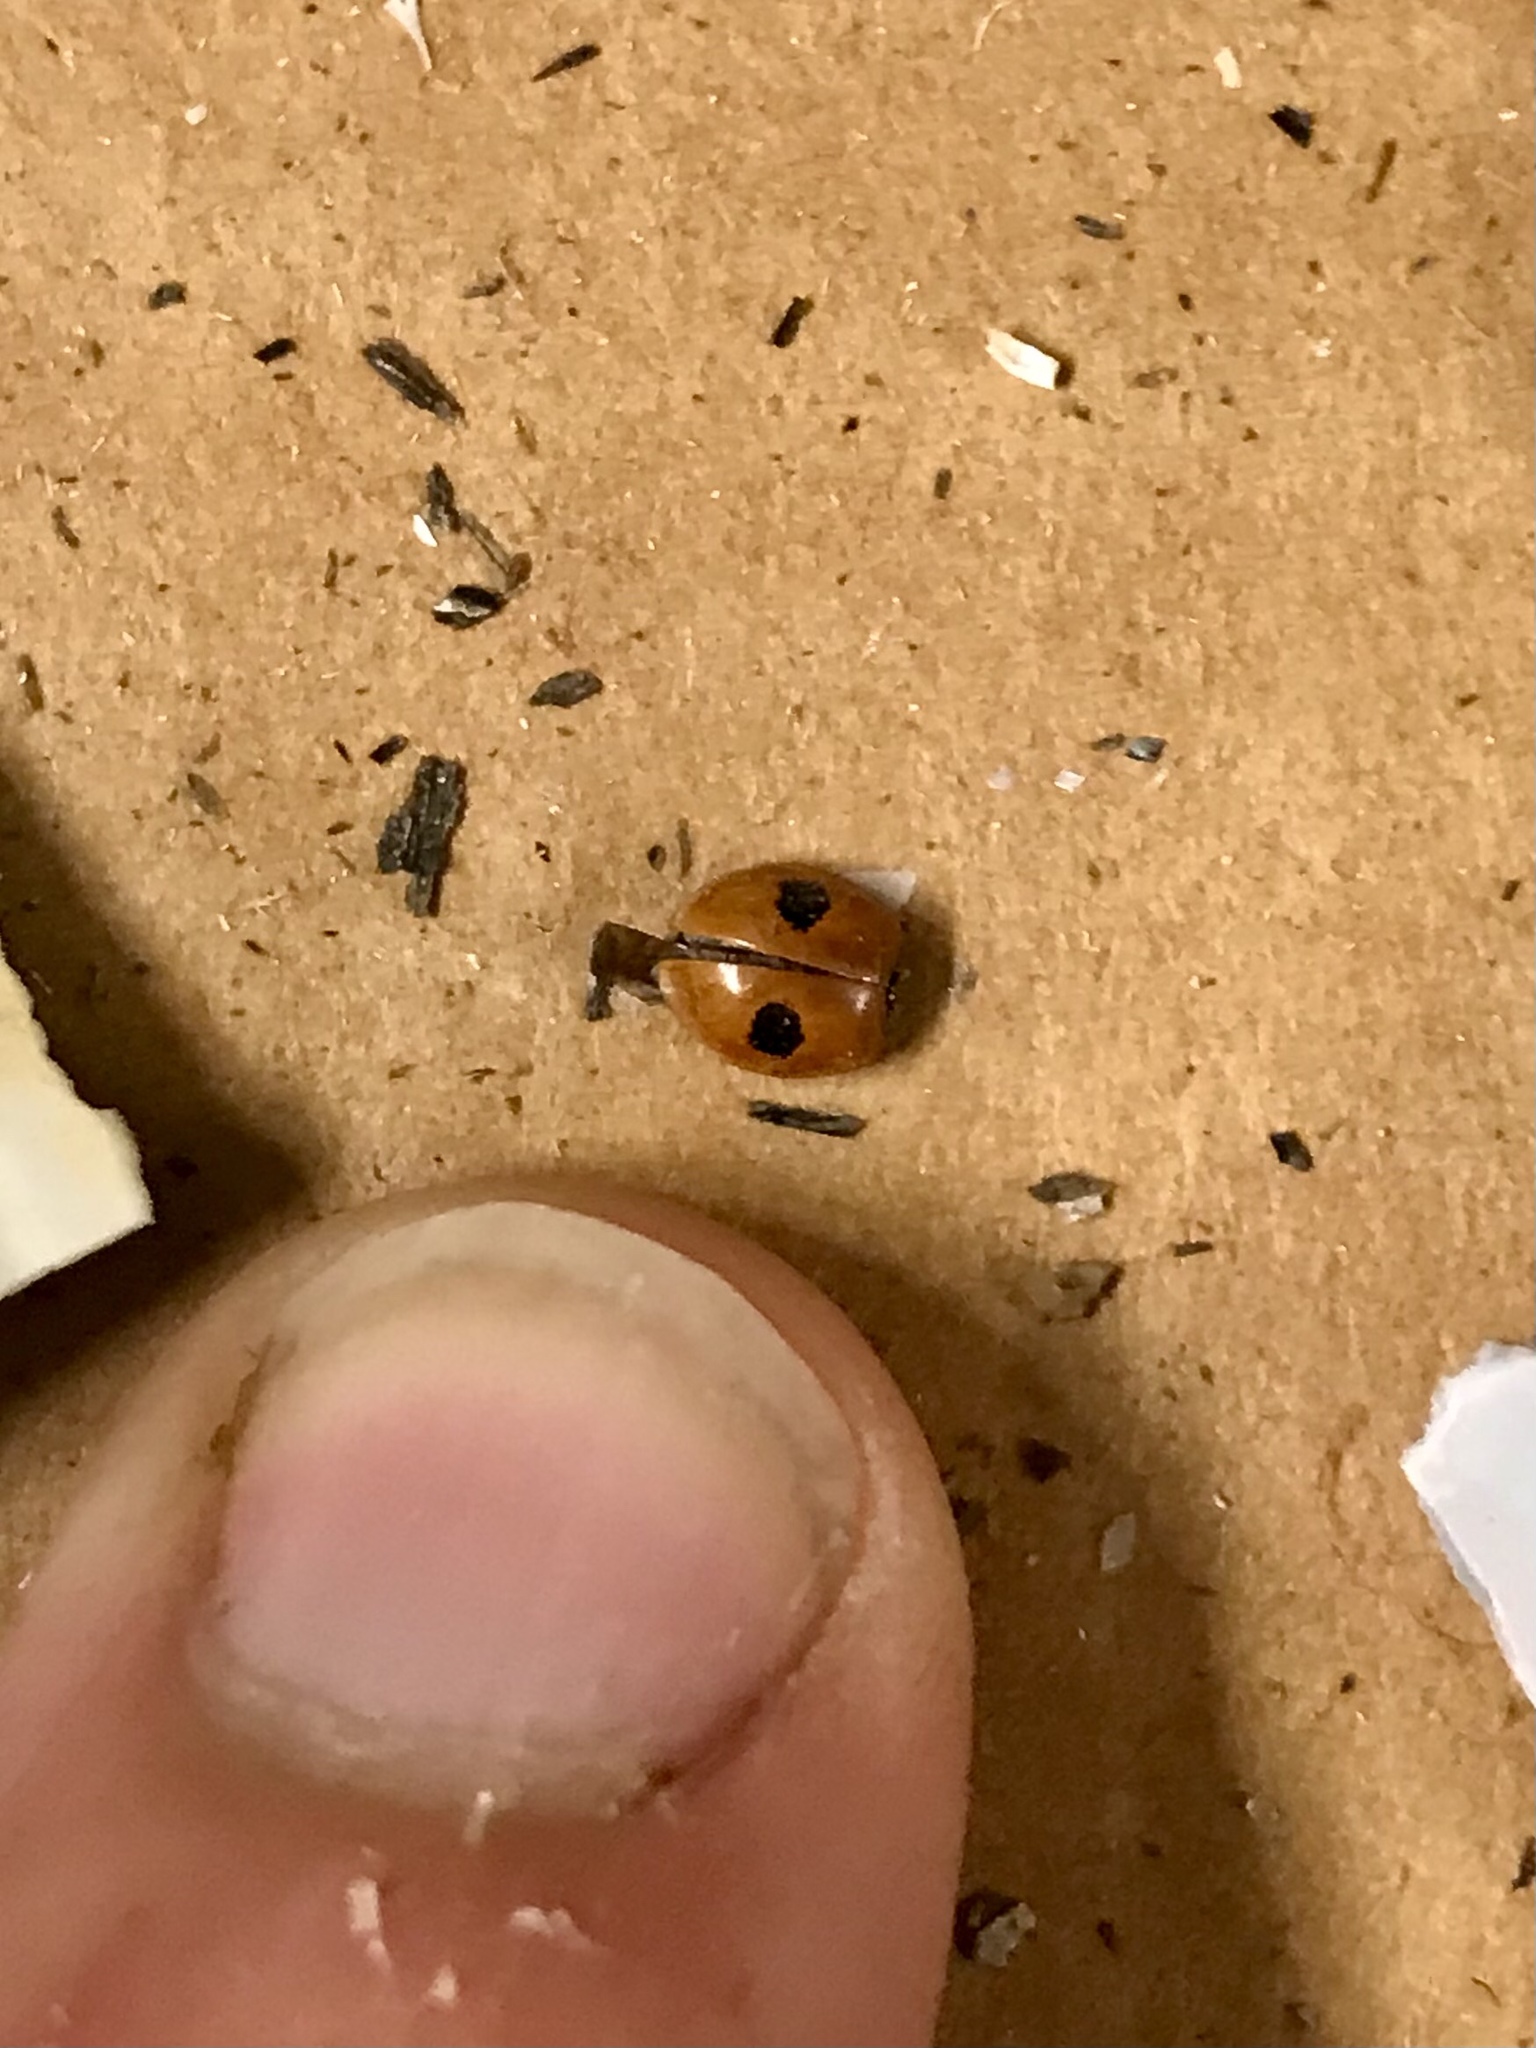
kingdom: Animalia
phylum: Arthropoda
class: Insecta
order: Coleoptera
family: Coccinellidae
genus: Adalia
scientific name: Adalia bipunctata
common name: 2-spot ladybird
